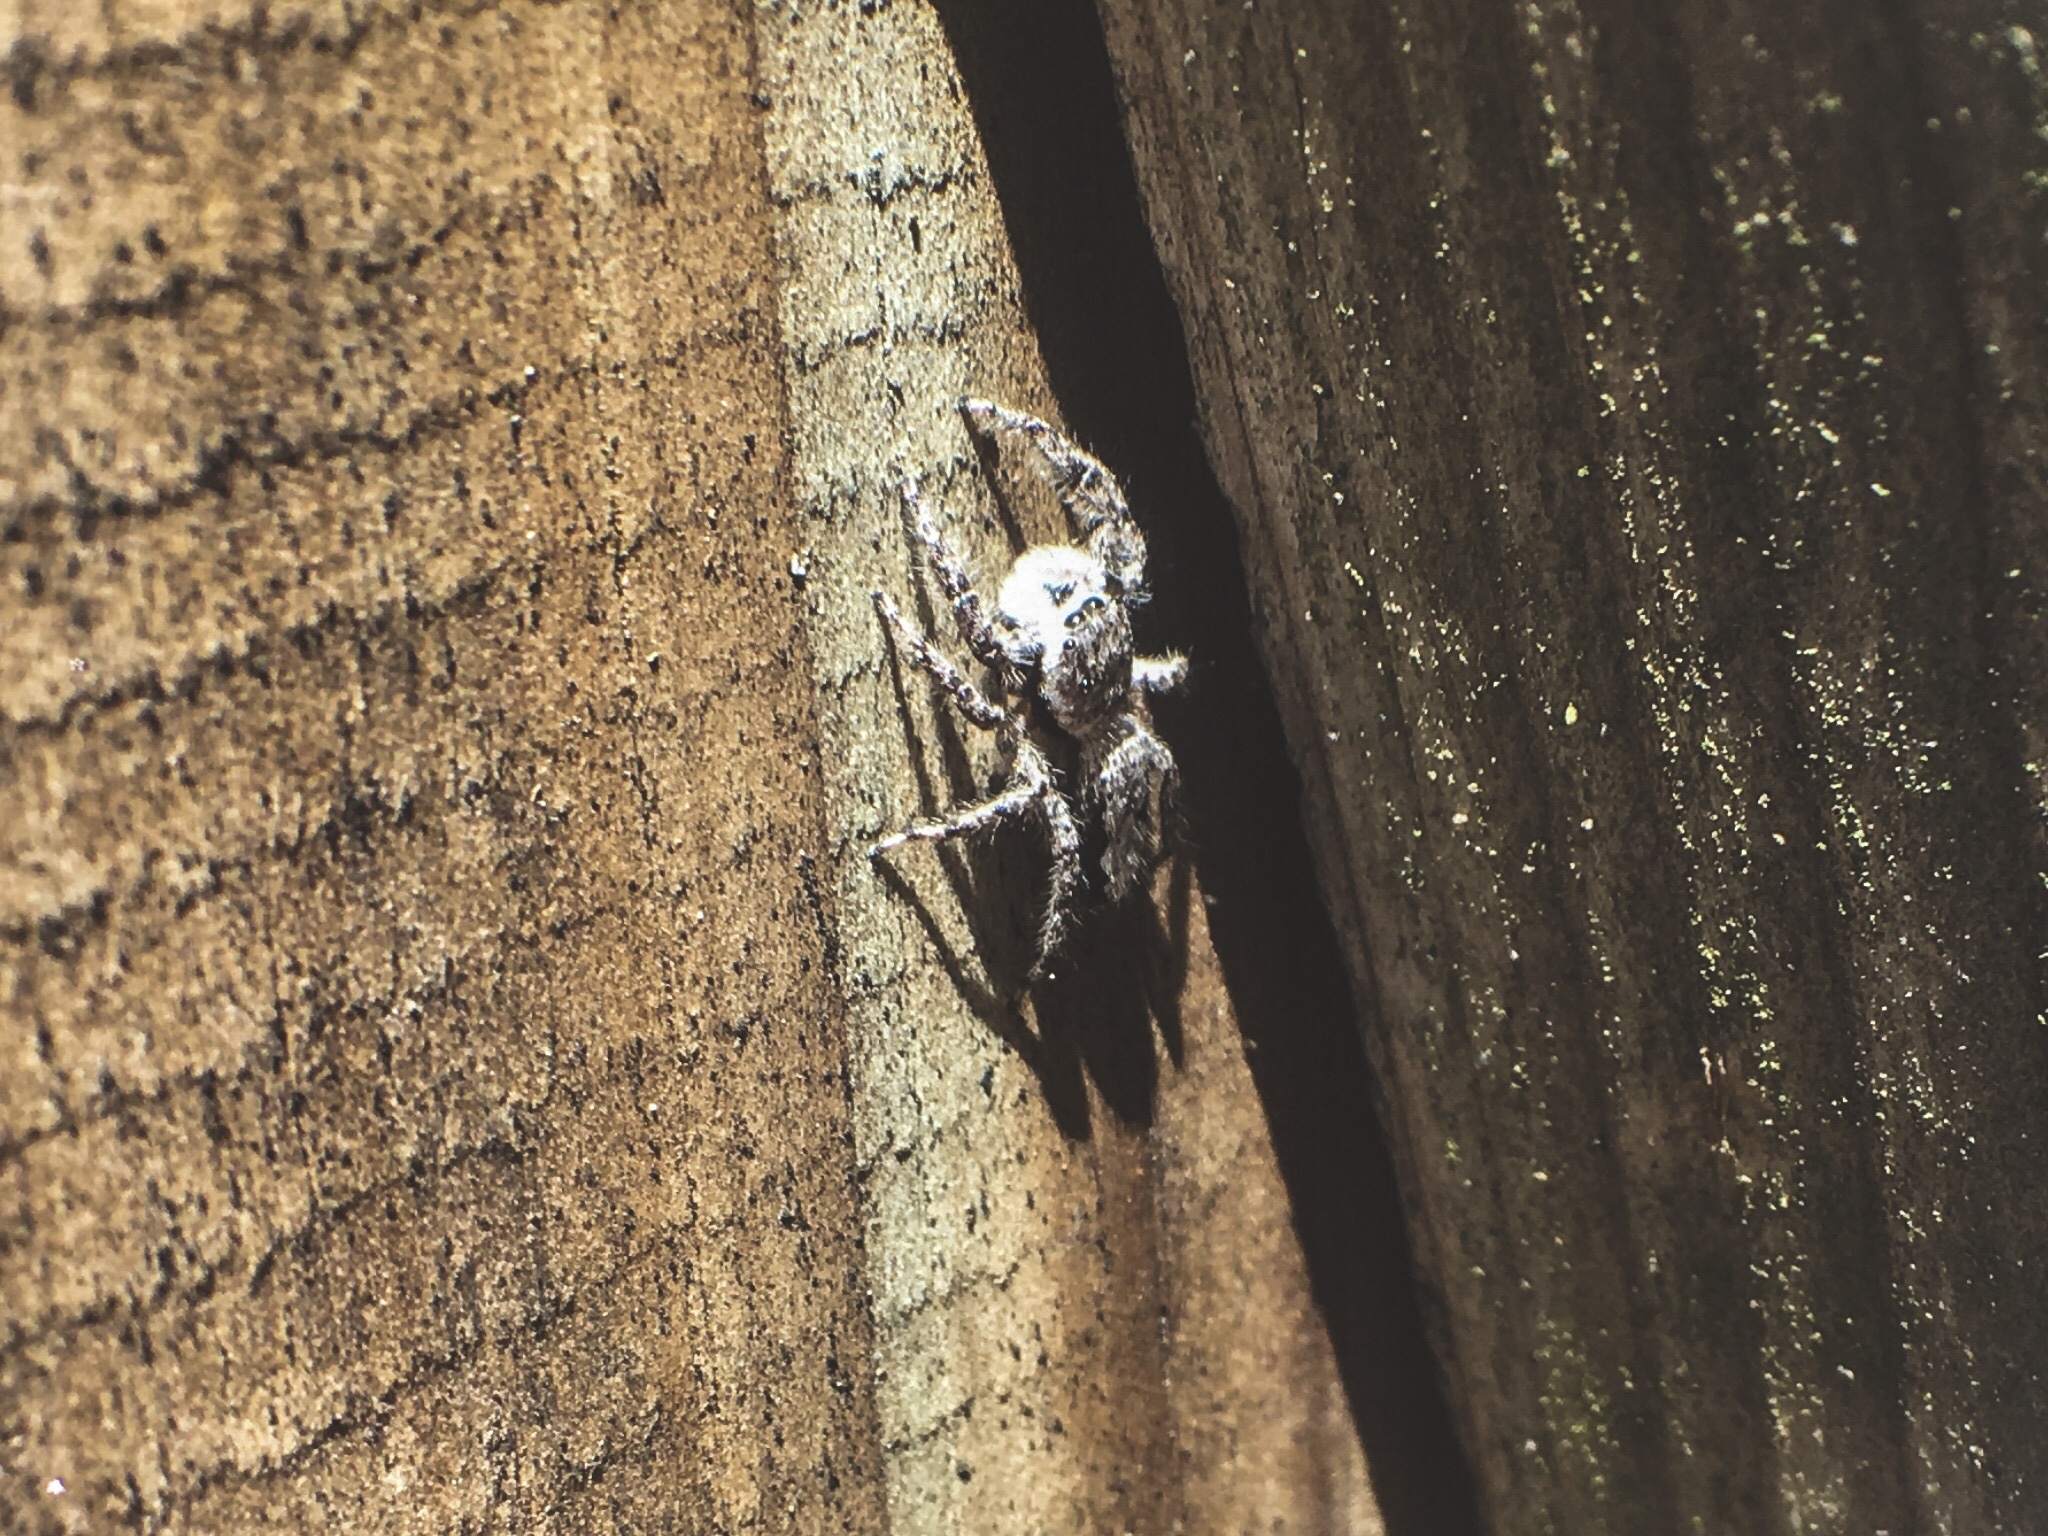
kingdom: Animalia
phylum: Arthropoda
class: Arachnida
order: Araneae
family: Salticidae
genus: Platycryptus
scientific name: Platycryptus undatus
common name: Tan jumping spider
